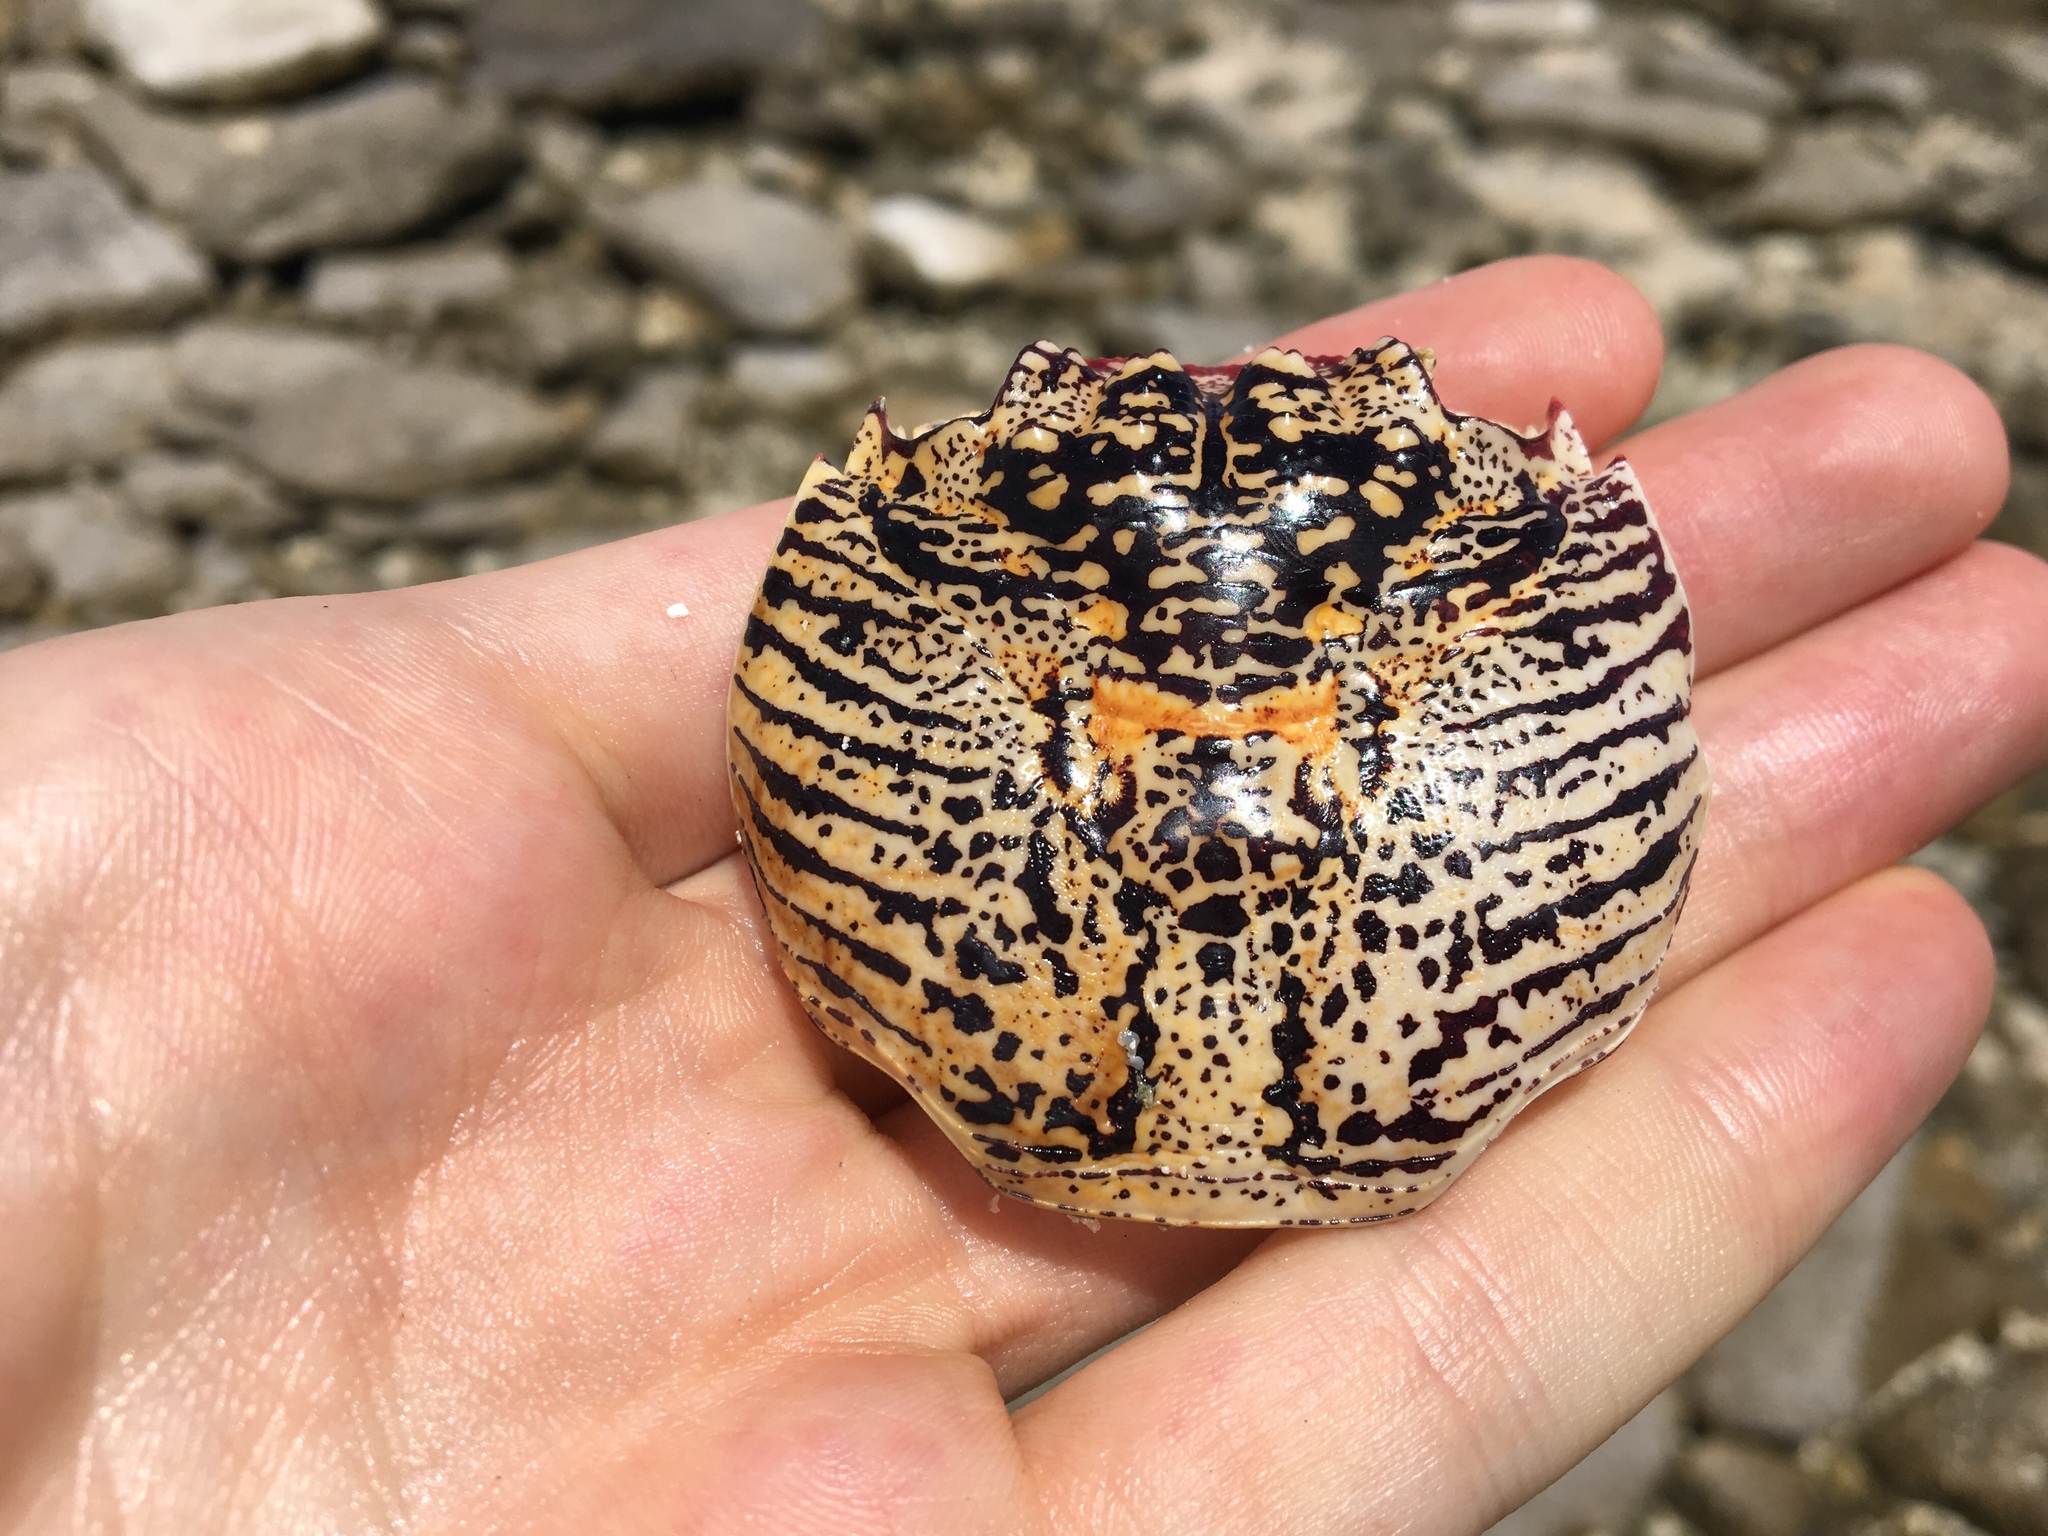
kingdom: Animalia
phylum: Arthropoda
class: Malacostraca
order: Decapoda
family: Grapsidae
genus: Grapsus
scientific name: Grapsus albolineatus
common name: Mottled lightfoot crab
